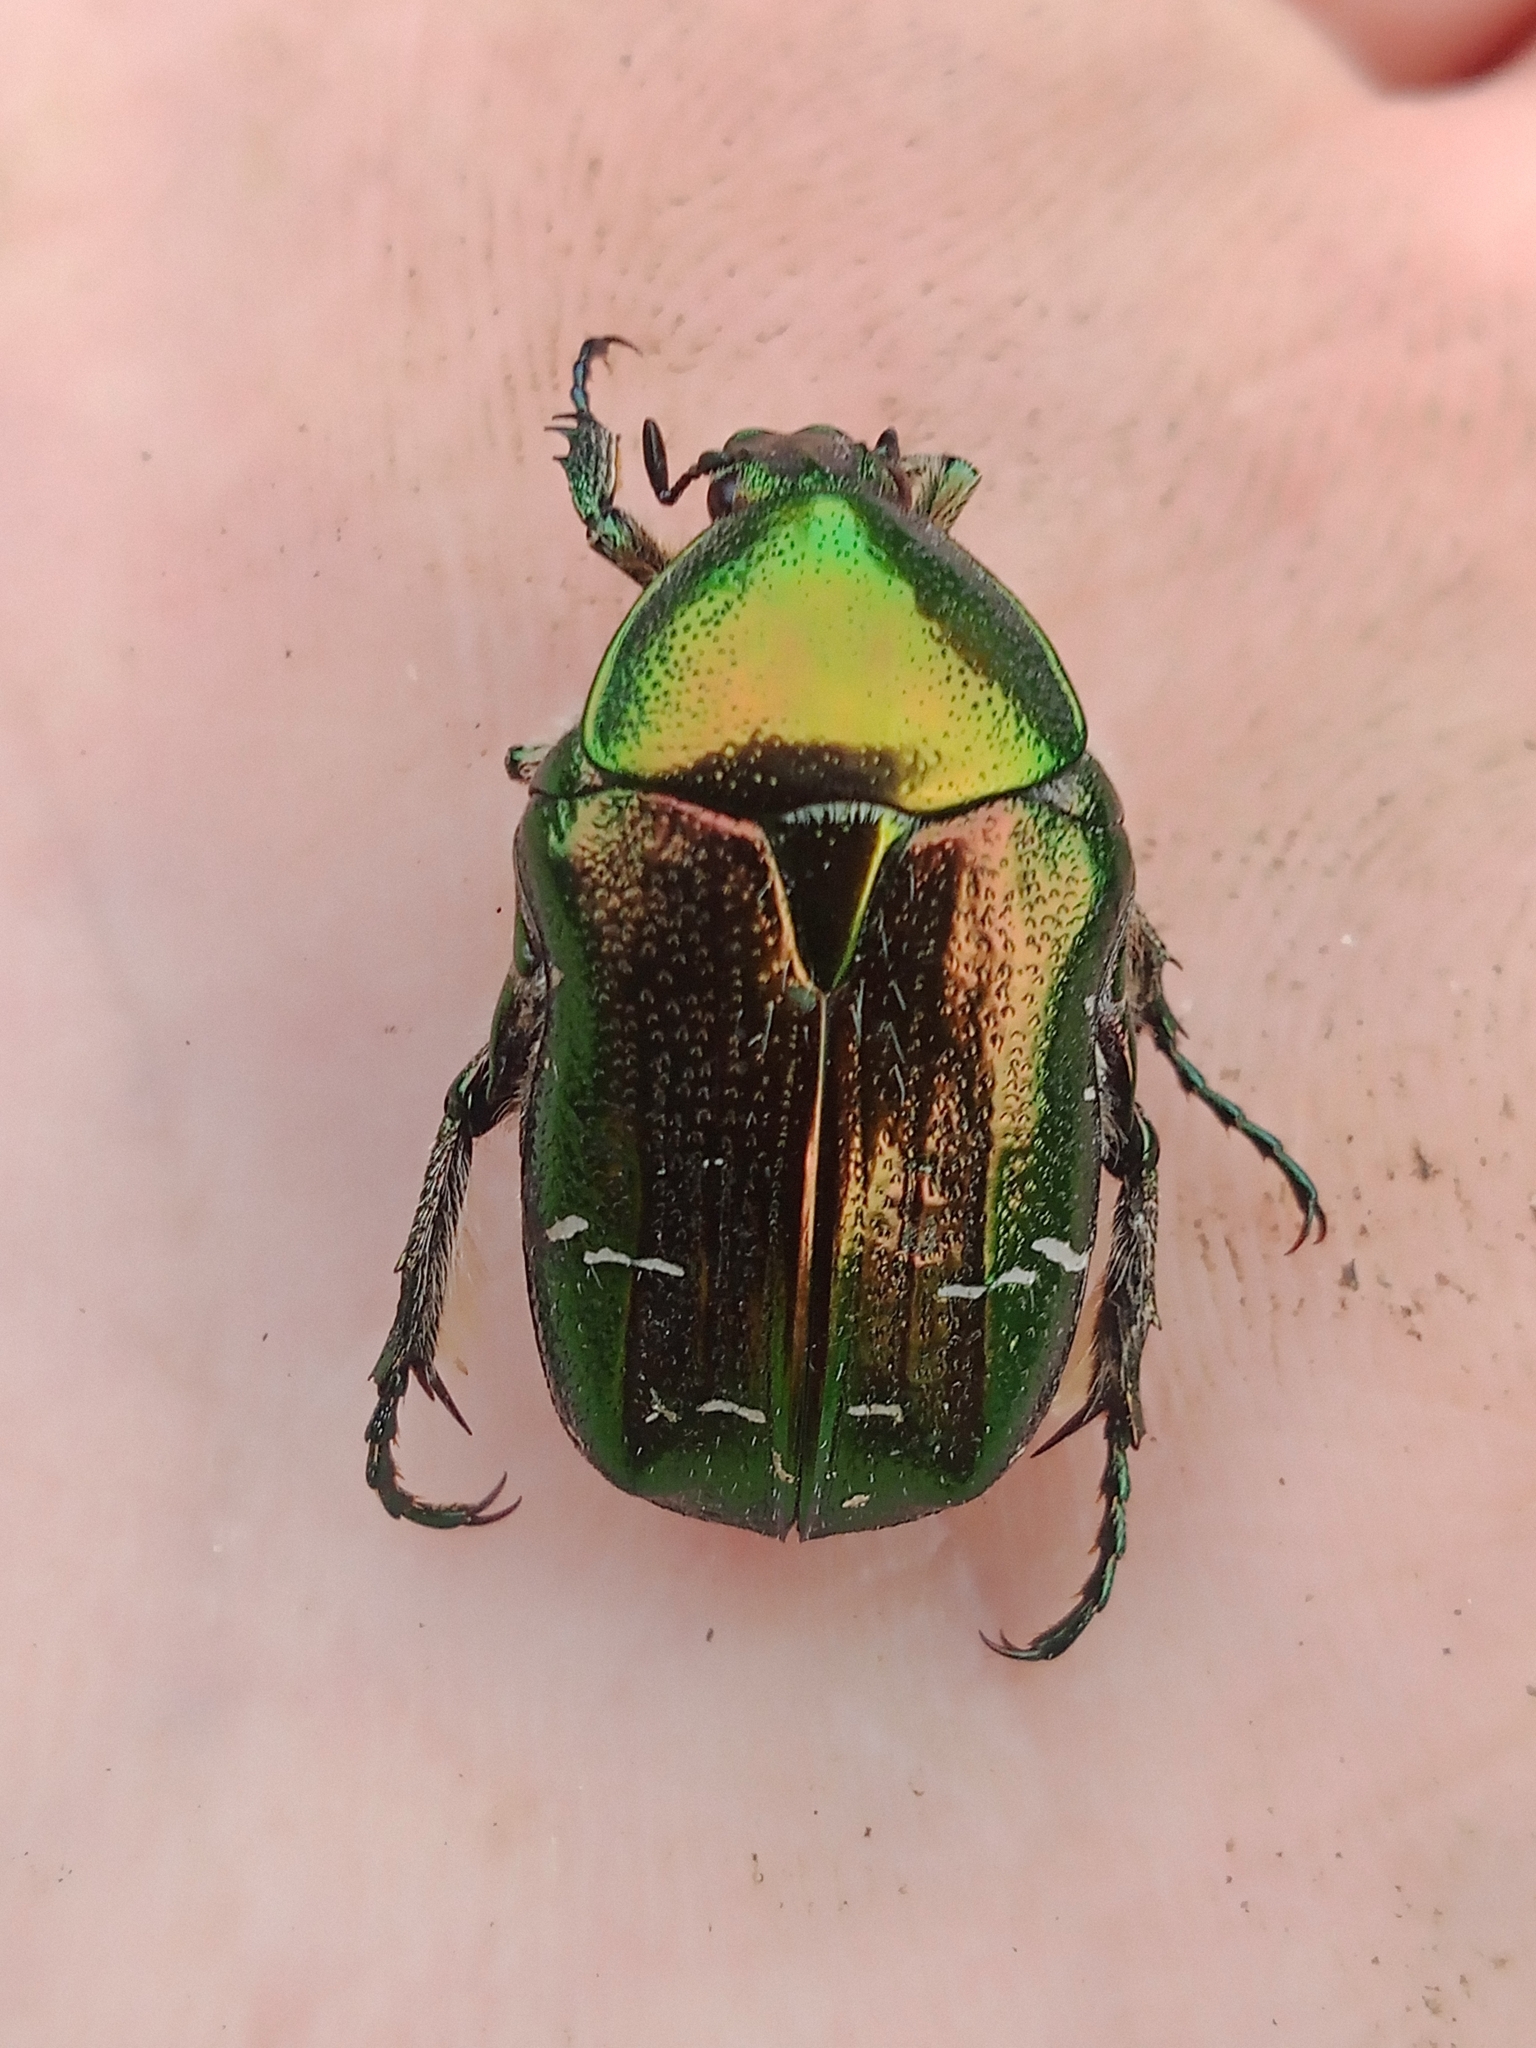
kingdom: Animalia
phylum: Arthropoda
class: Insecta
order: Coleoptera
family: Scarabaeidae
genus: Cetonia
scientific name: Cetonia aurata
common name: Rose chafer
